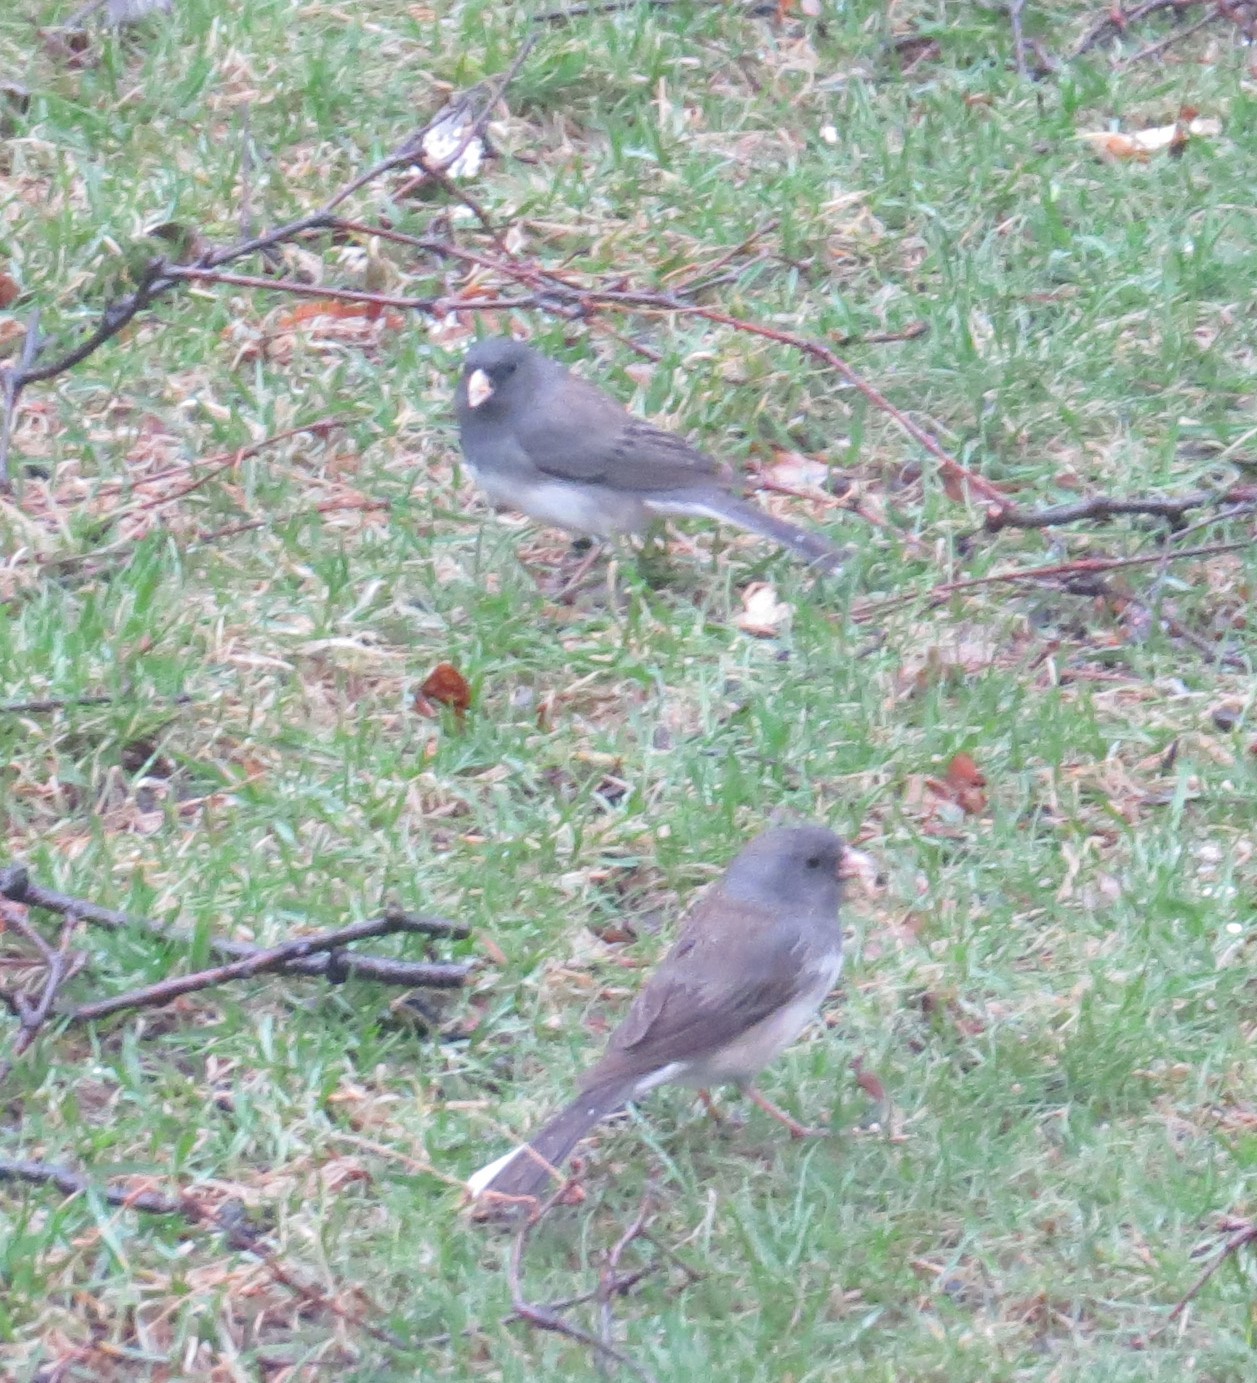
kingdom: Animalia
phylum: Chordata
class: Aves
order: Passeriformes
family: Passerellidae
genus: Junco
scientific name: Junco hyemalis
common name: Dark-eyed junco
